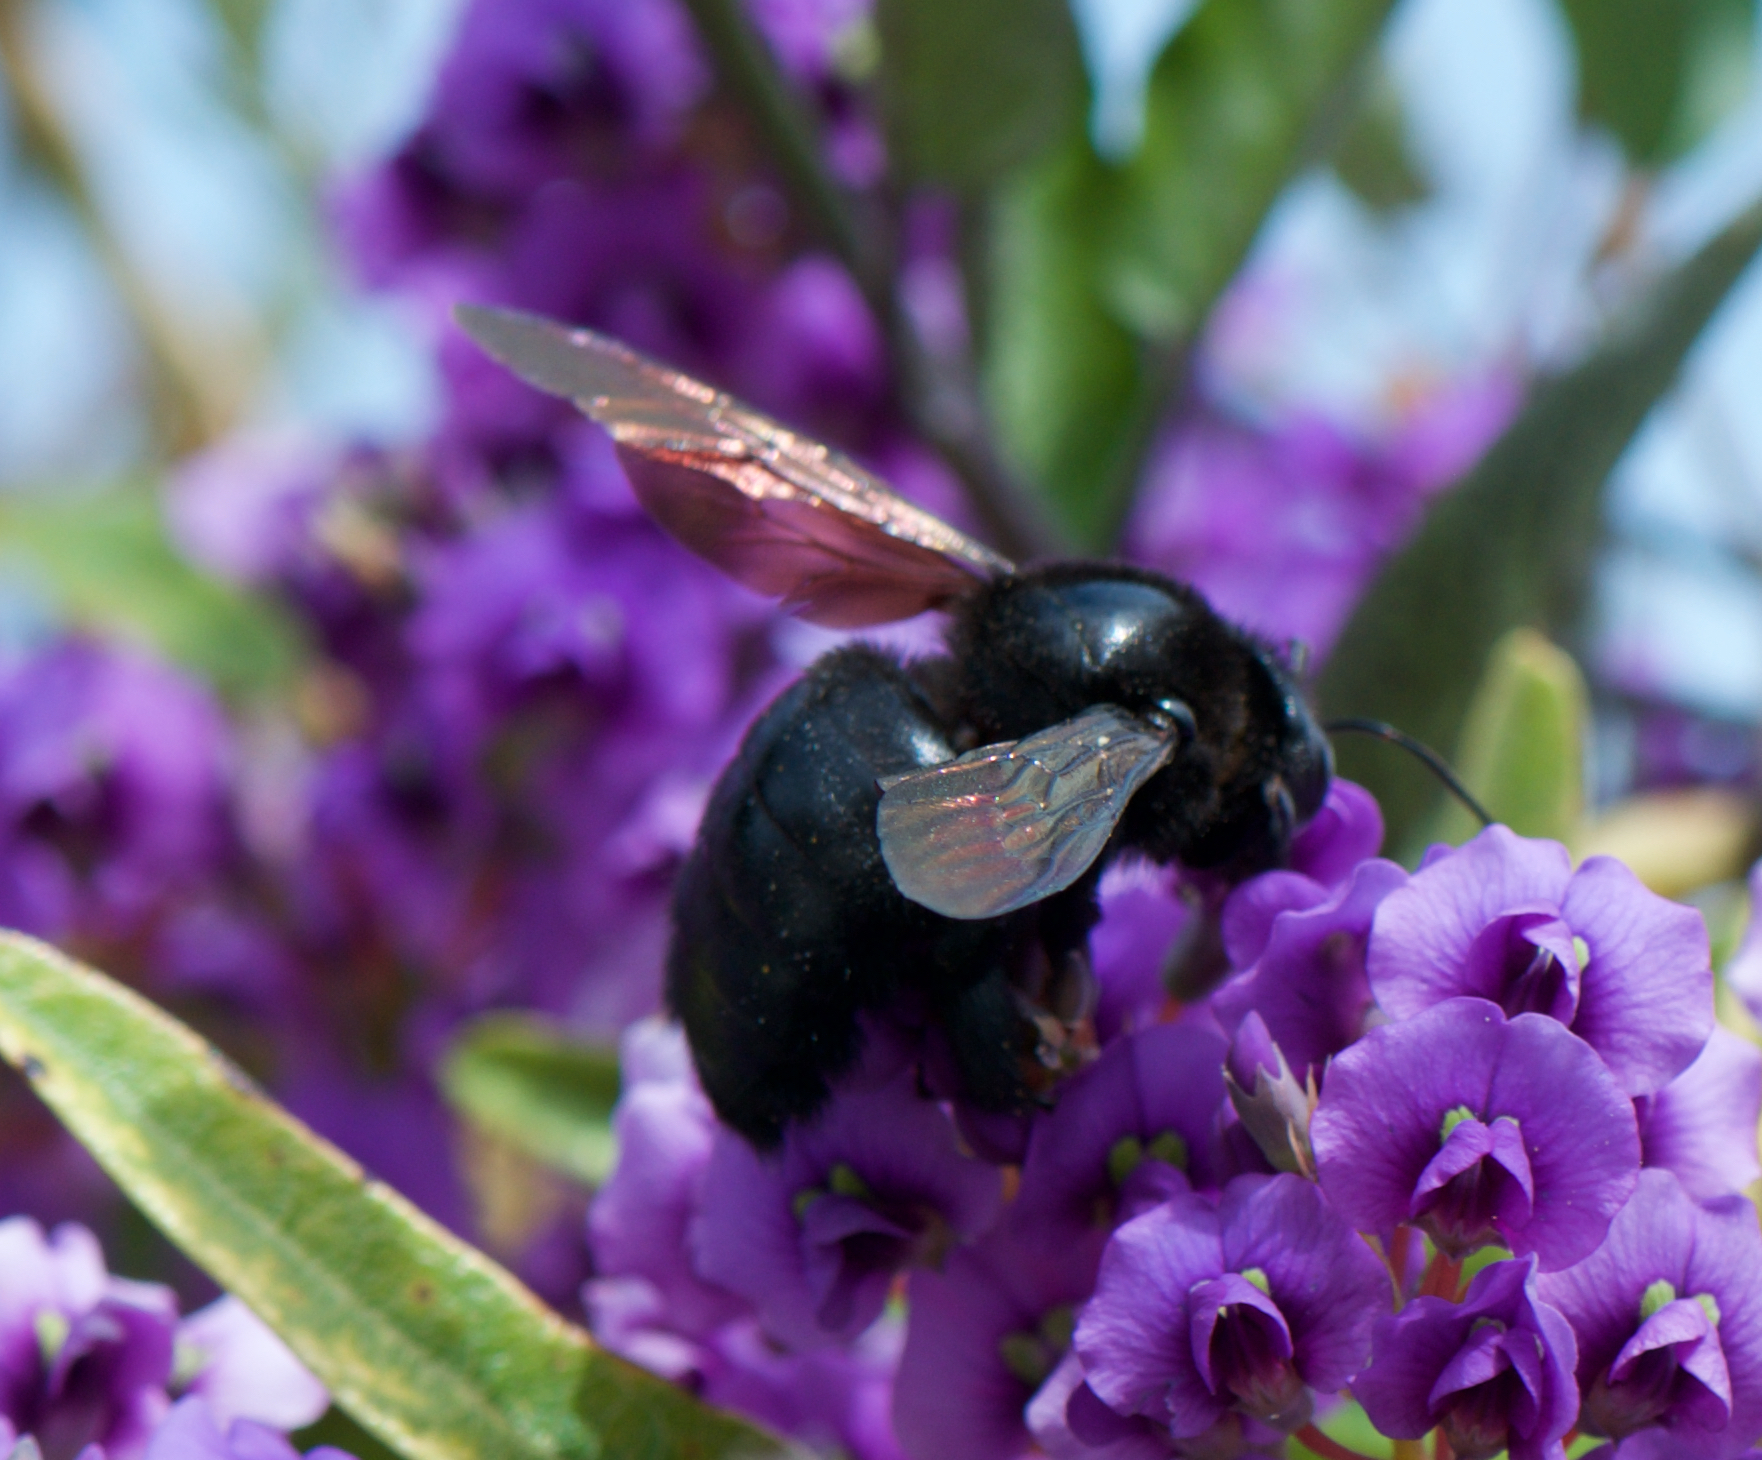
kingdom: Animalia
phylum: Arthropoda
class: Insecta
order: Hymenoptera
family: Apidae
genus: Xylocopa
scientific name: Xylocopa sonorina
